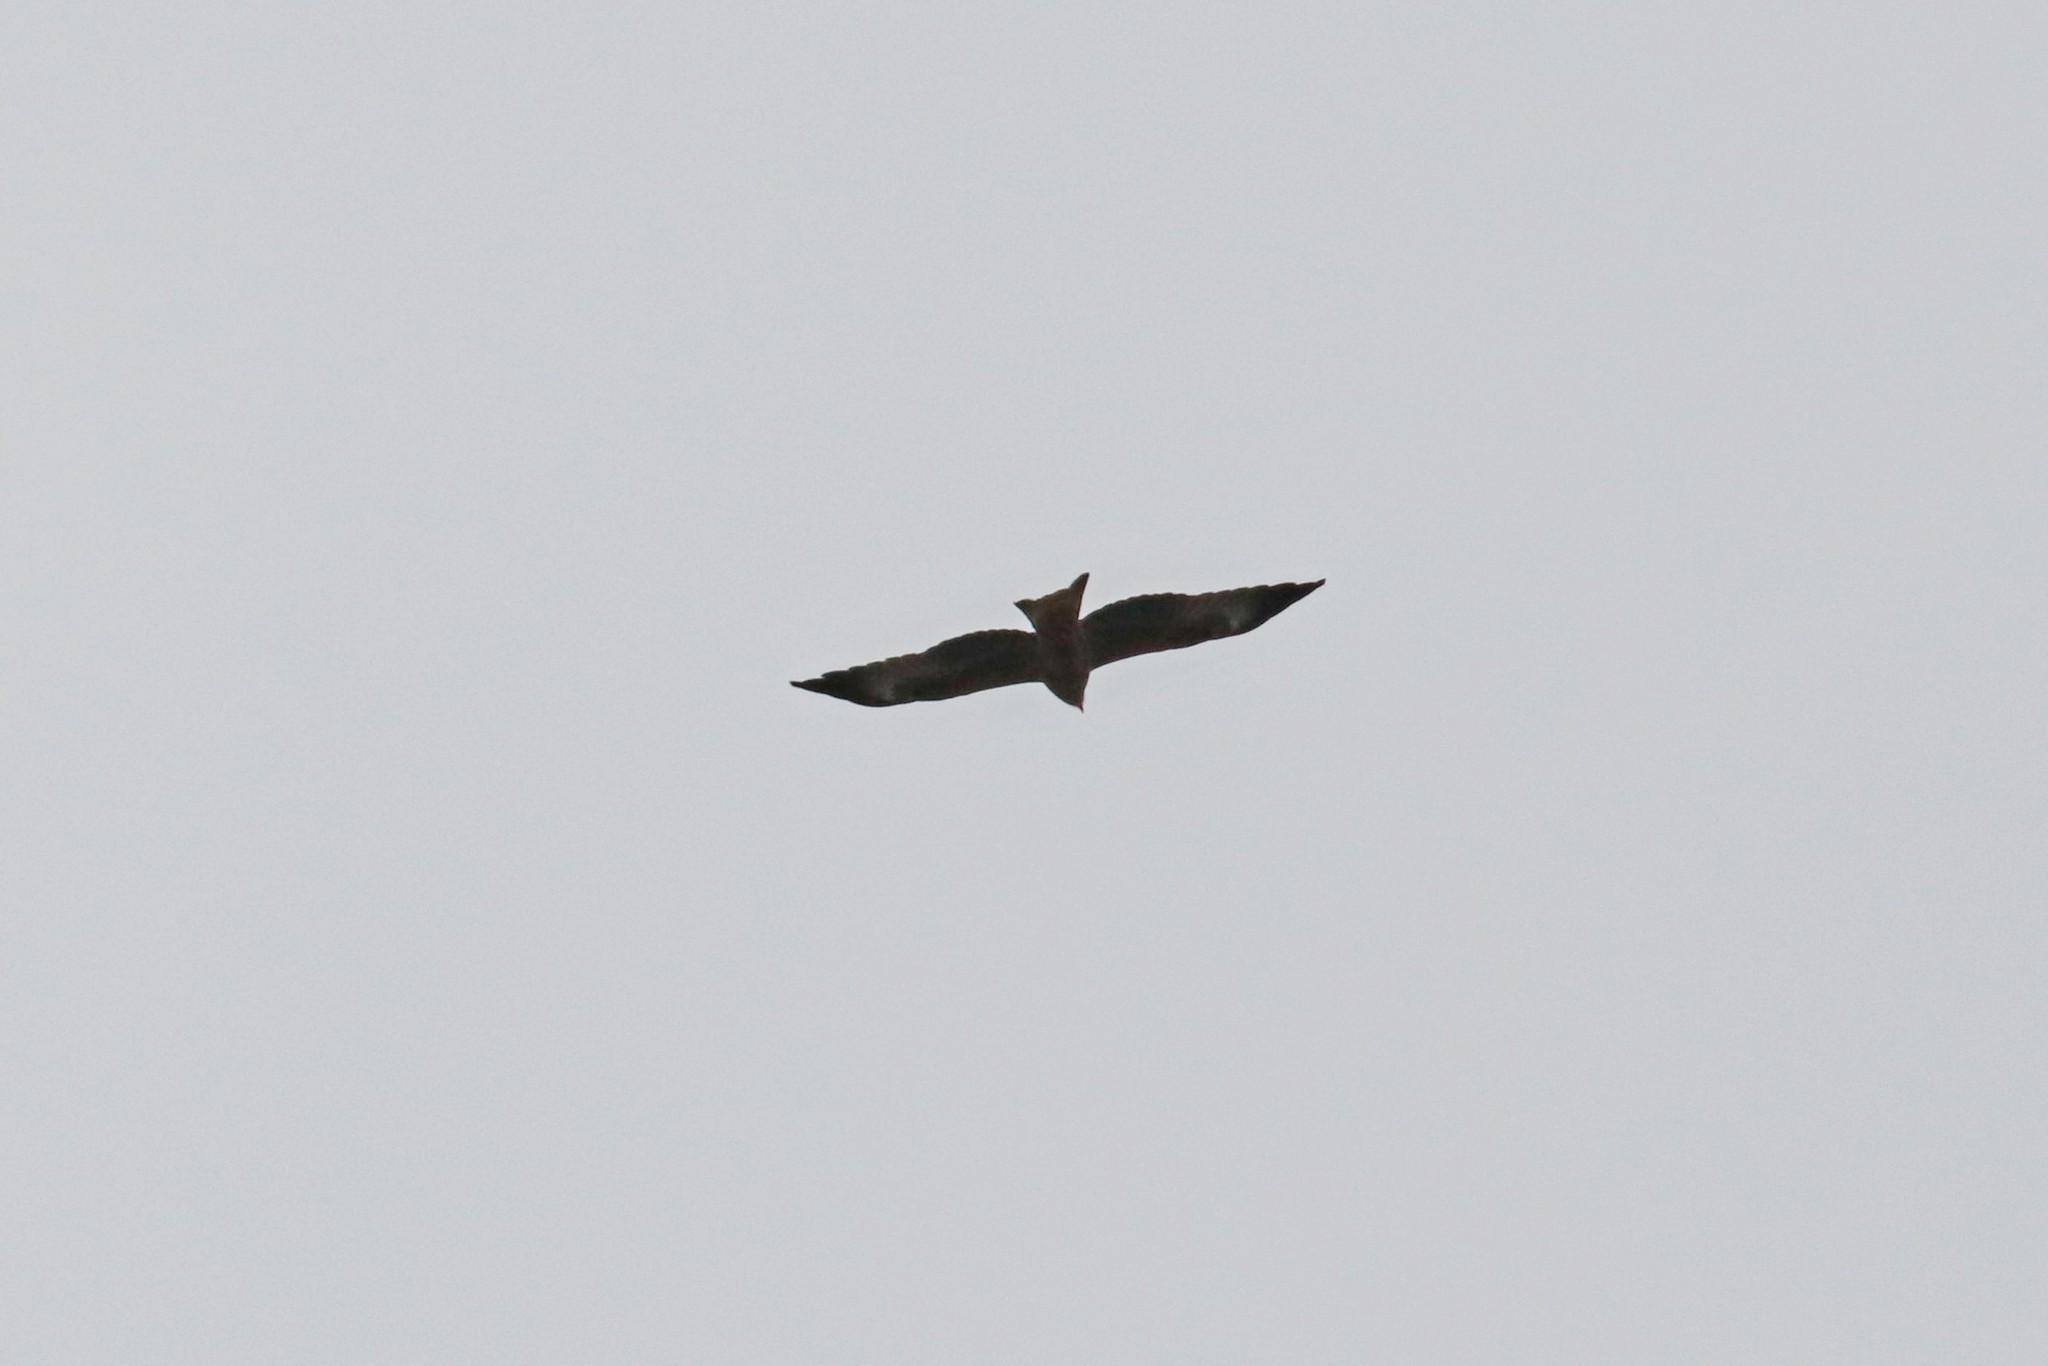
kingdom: Animalia
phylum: Chordata
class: Aves
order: Accipitriformes
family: Accipitridae
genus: Milvus
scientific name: Milvus migrans
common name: Black kite
